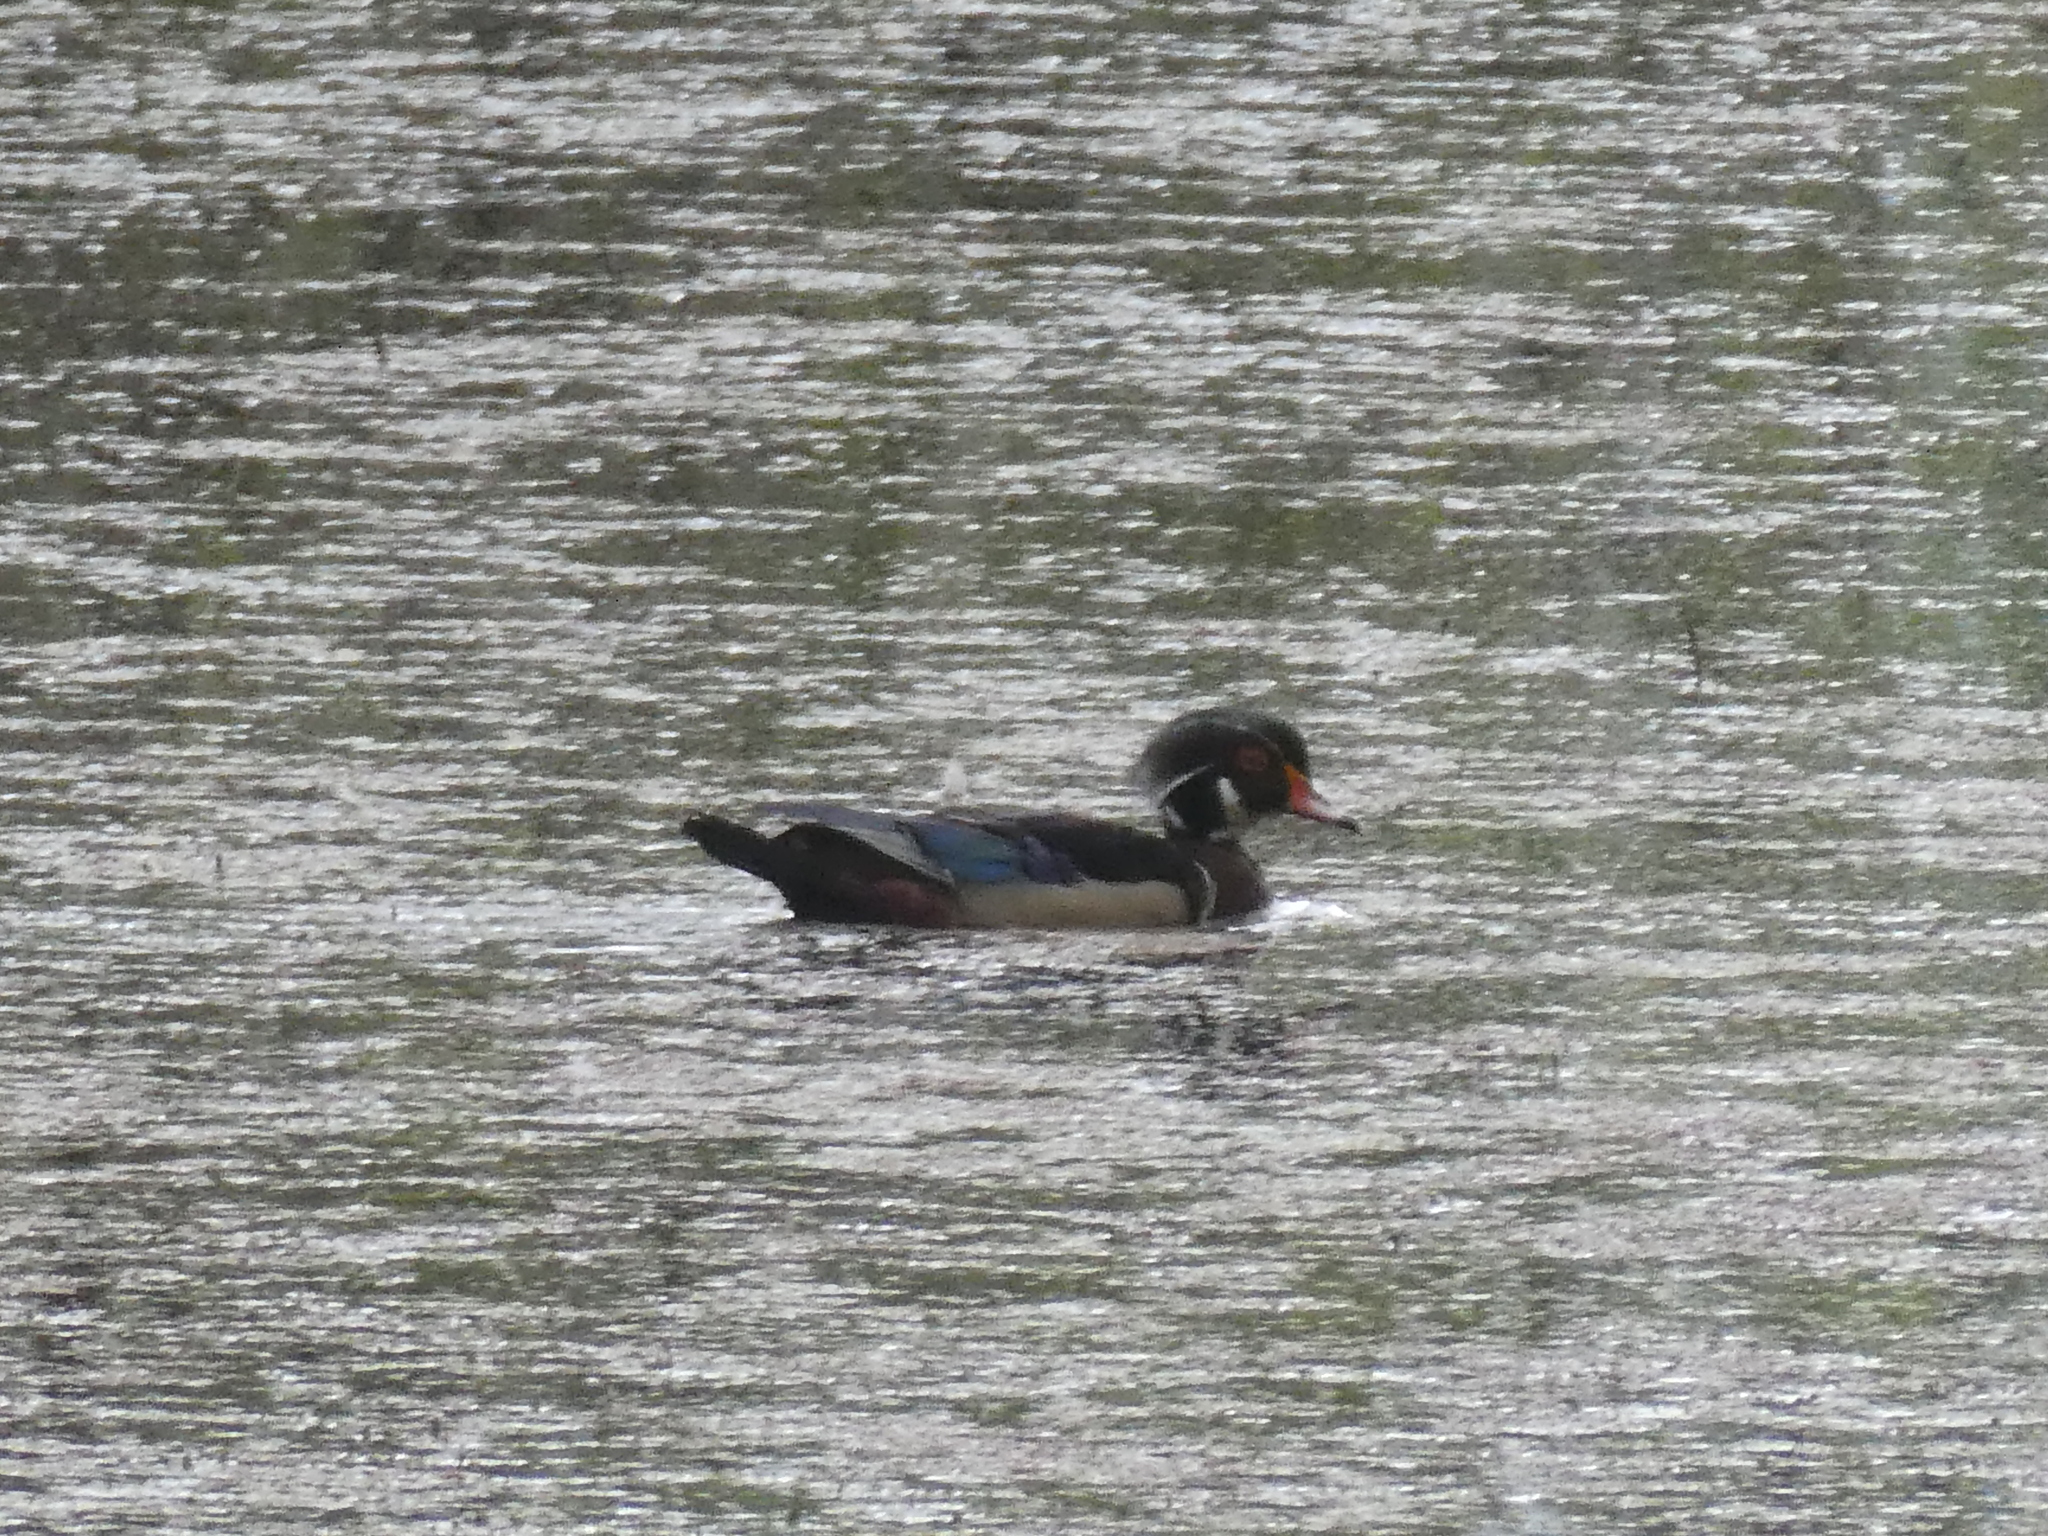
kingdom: Animalia
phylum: Chordata
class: Aves
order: Anseriformes
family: Anatidae
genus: Aix
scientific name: Aix sponsa
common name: Wood duck
